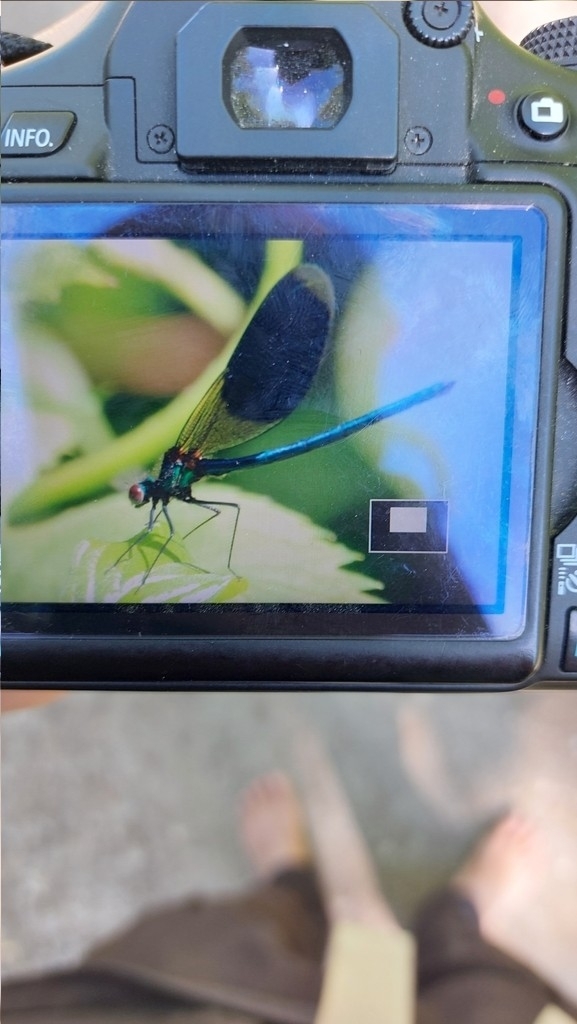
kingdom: Animalia
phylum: Arthropoda
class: Insecta
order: Odonata
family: Calopterygidae
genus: Calopteryx
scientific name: Calopteryx splendens
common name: Banded demoiselle
